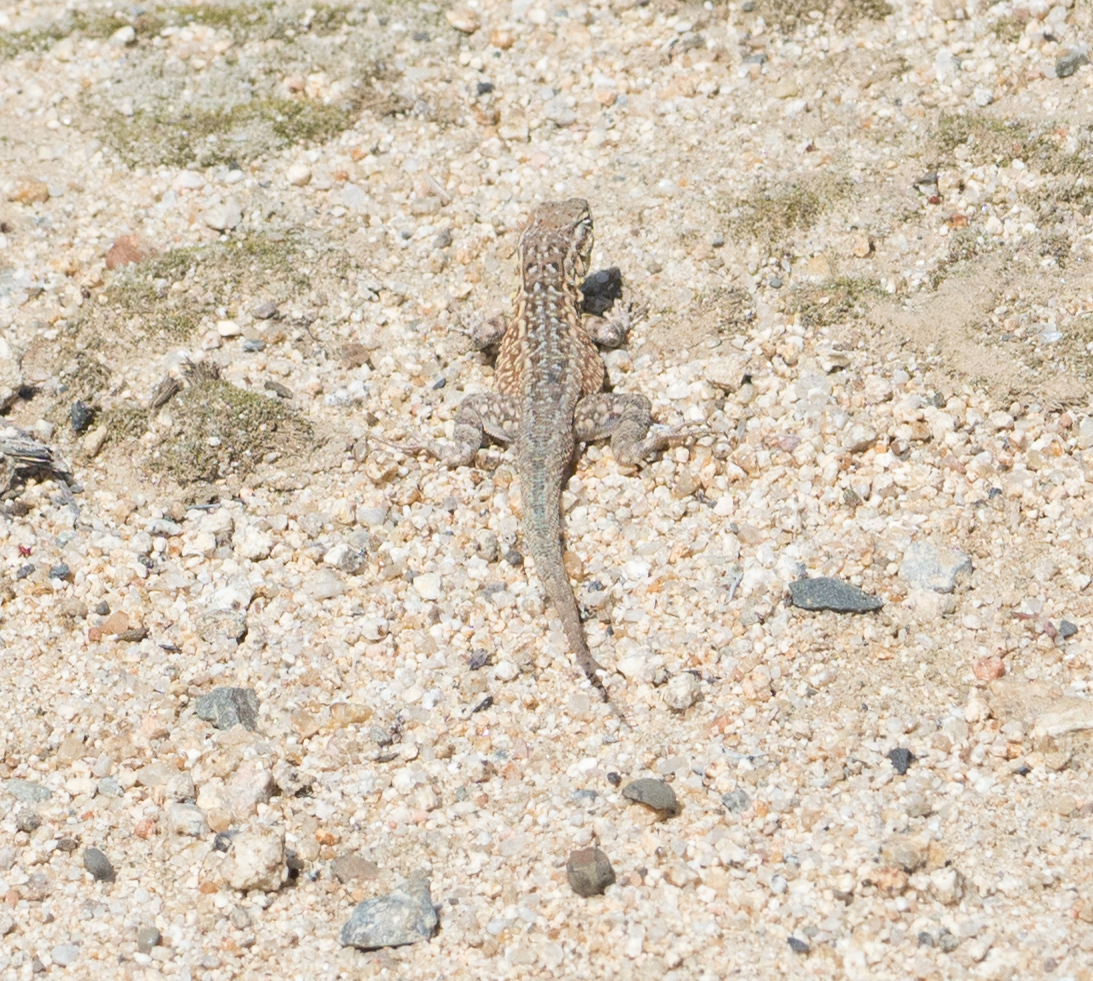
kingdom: Animalia
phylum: Chordata
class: Squamata
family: Phrynosomatidae
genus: Uta
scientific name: Uta stansburiana
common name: Side-blotched lizard
